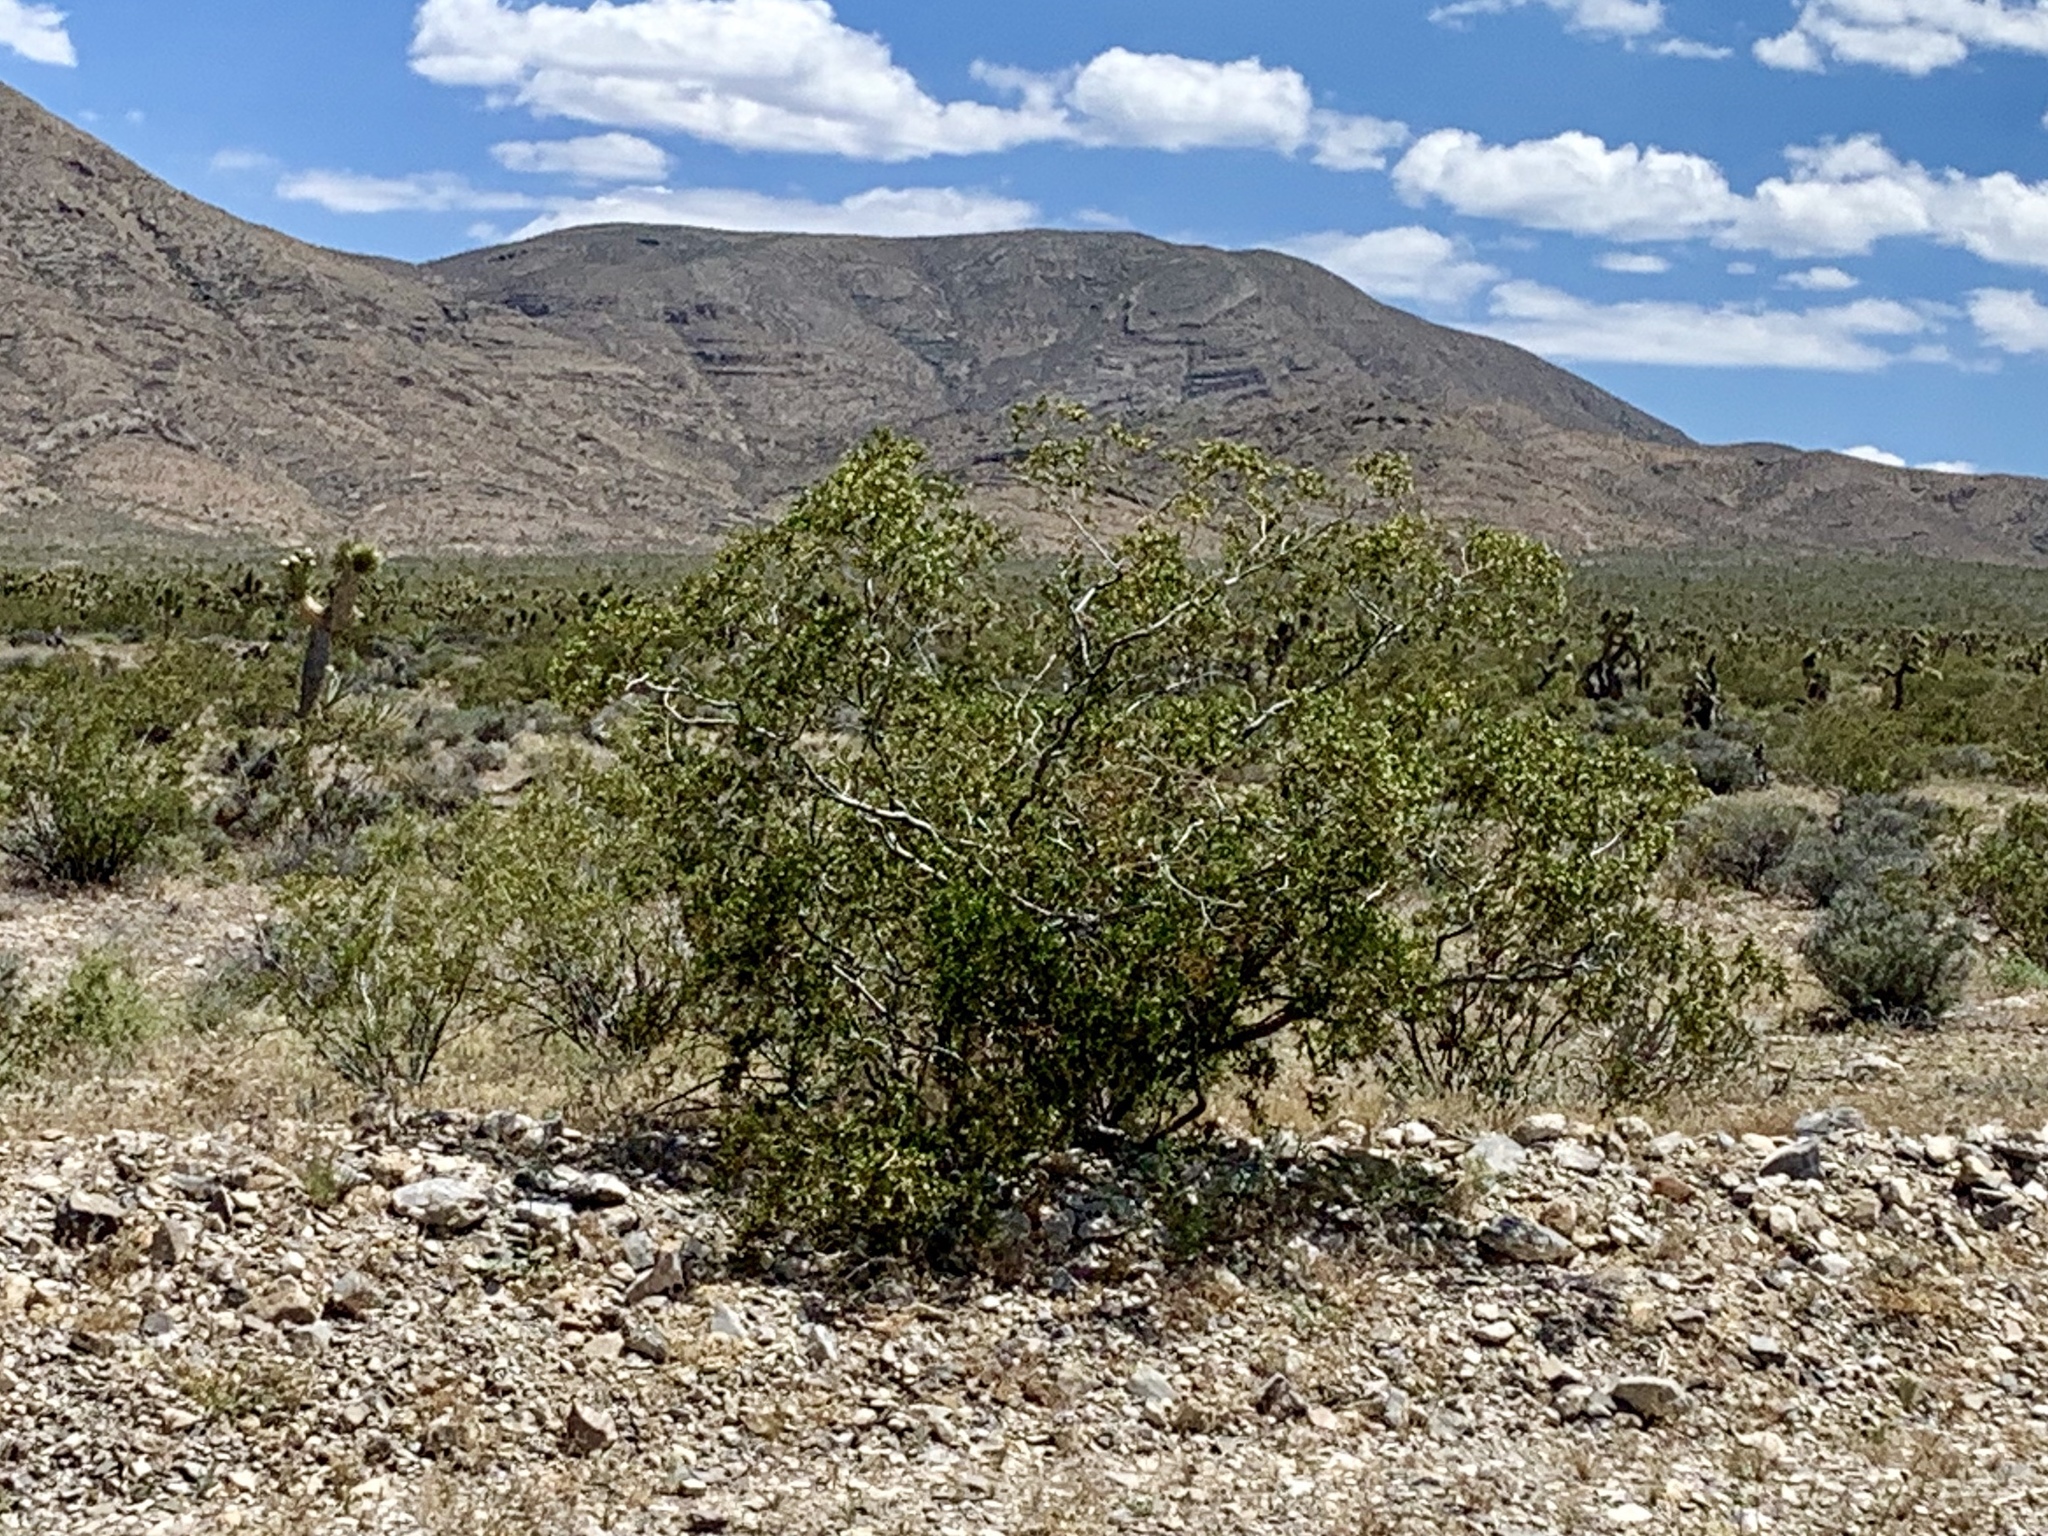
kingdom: Plantae
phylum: Tracheophyta
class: Magnoliopsida
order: Zygophyllales
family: Zygophyllaceae
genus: Larrea
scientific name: Larrea tridentata
